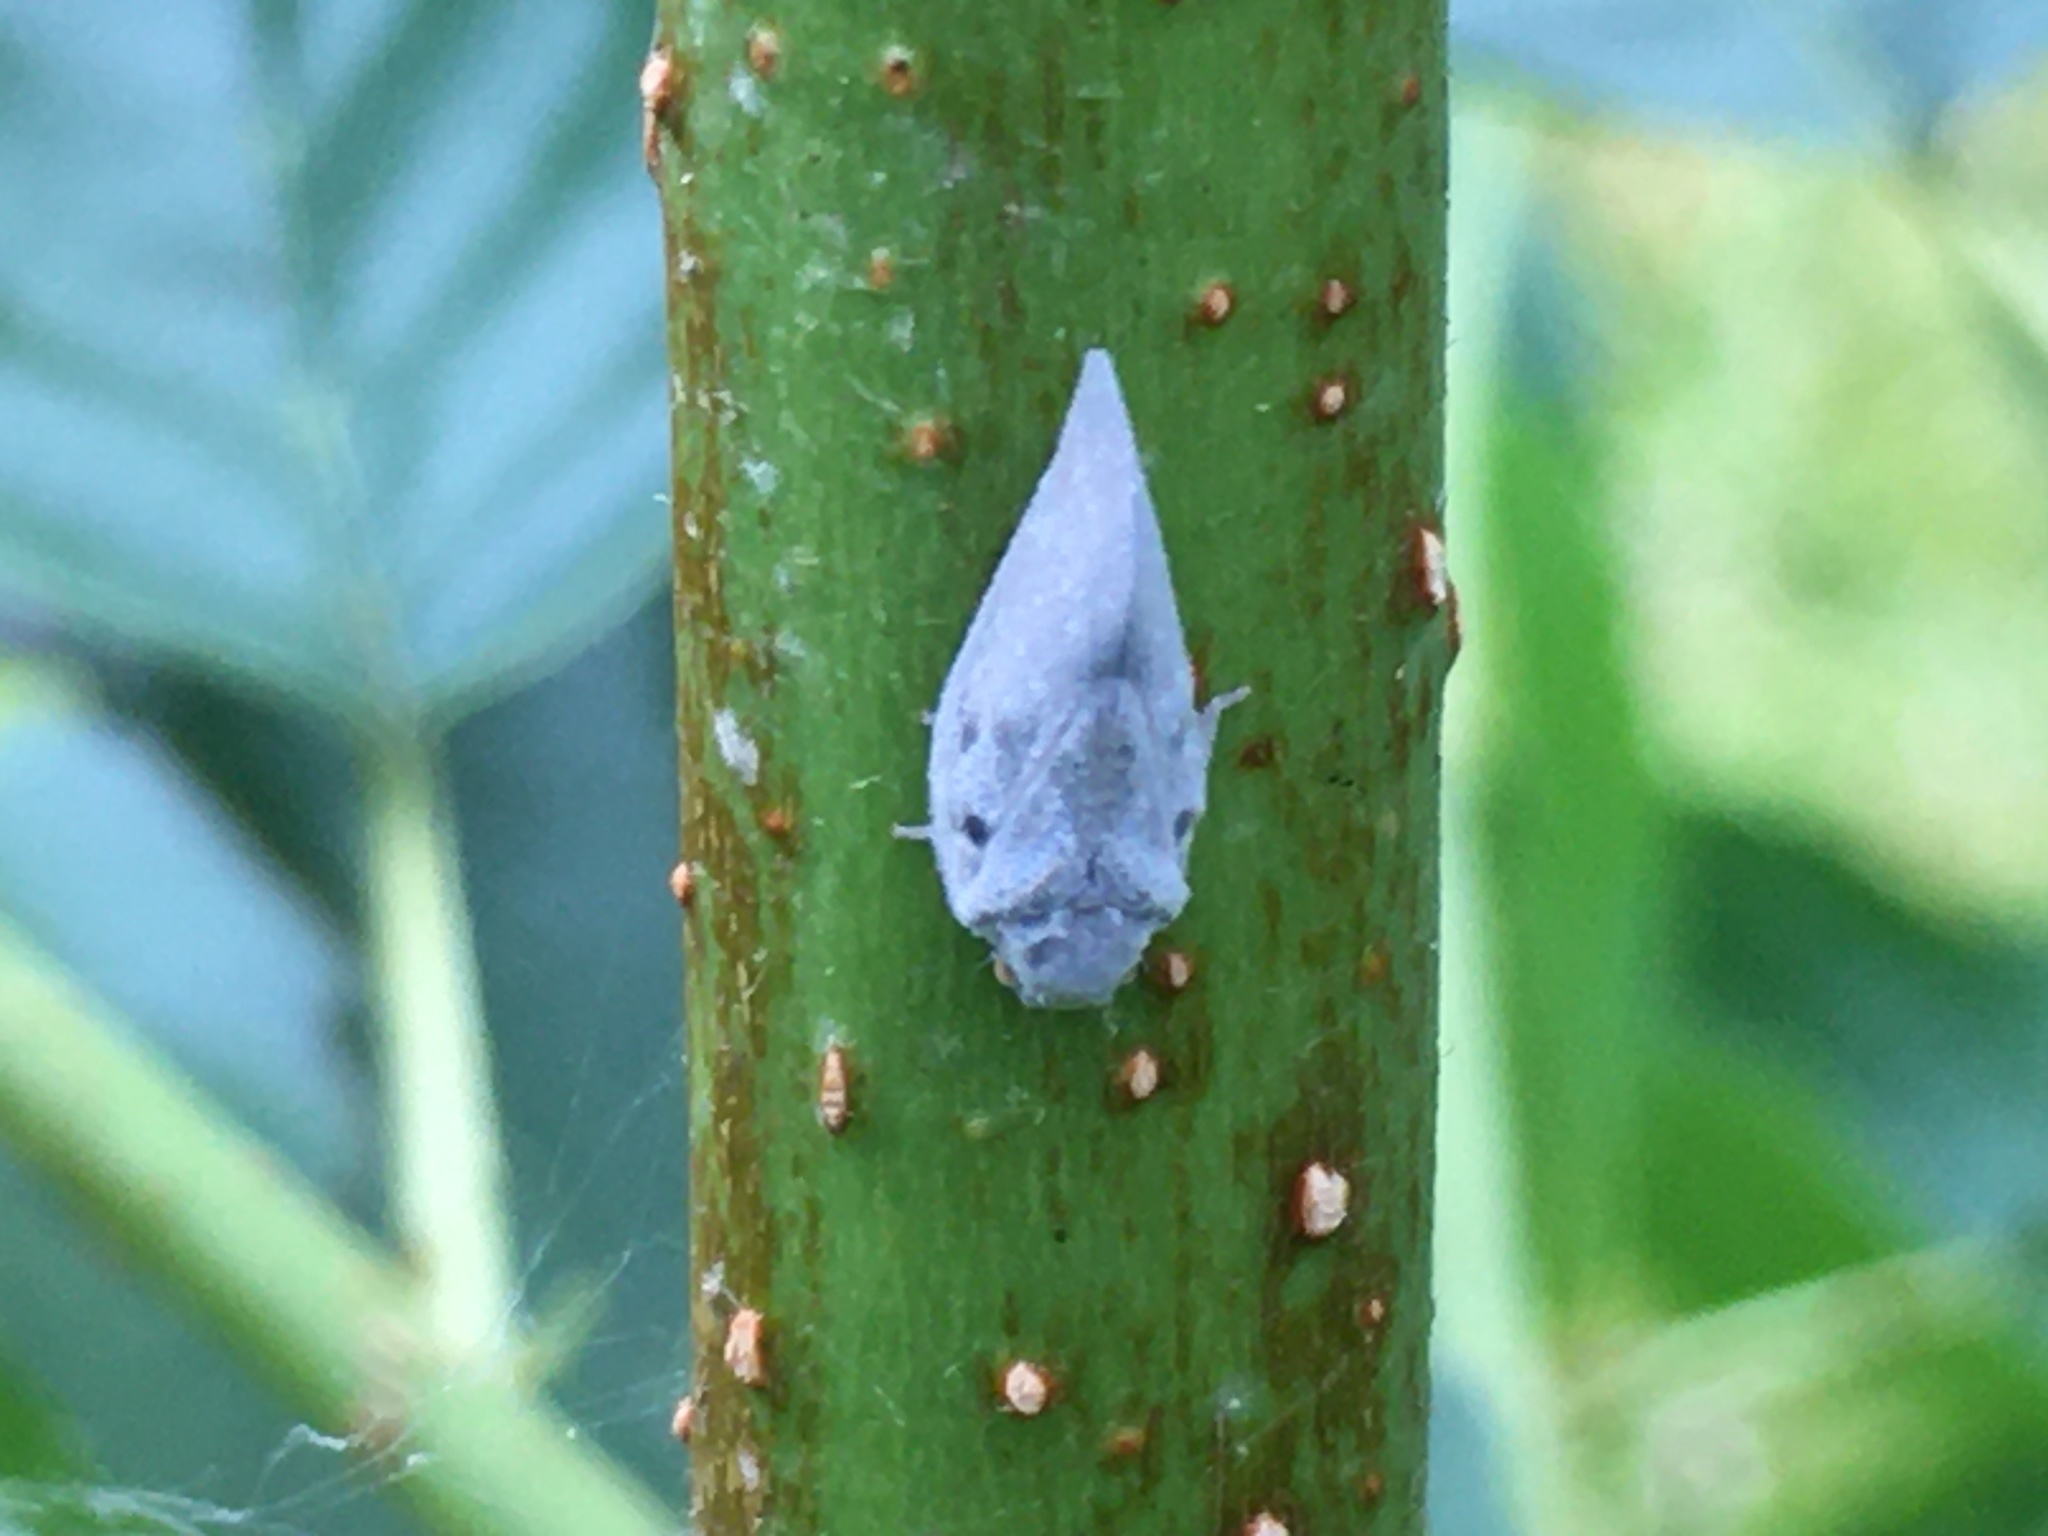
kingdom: Animalia
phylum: Arthropoda
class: Insecta
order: Hemiptera
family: Flatidae
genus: Metcalfa
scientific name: Metcalfa pruinosa
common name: Citrus flatid planthopper
